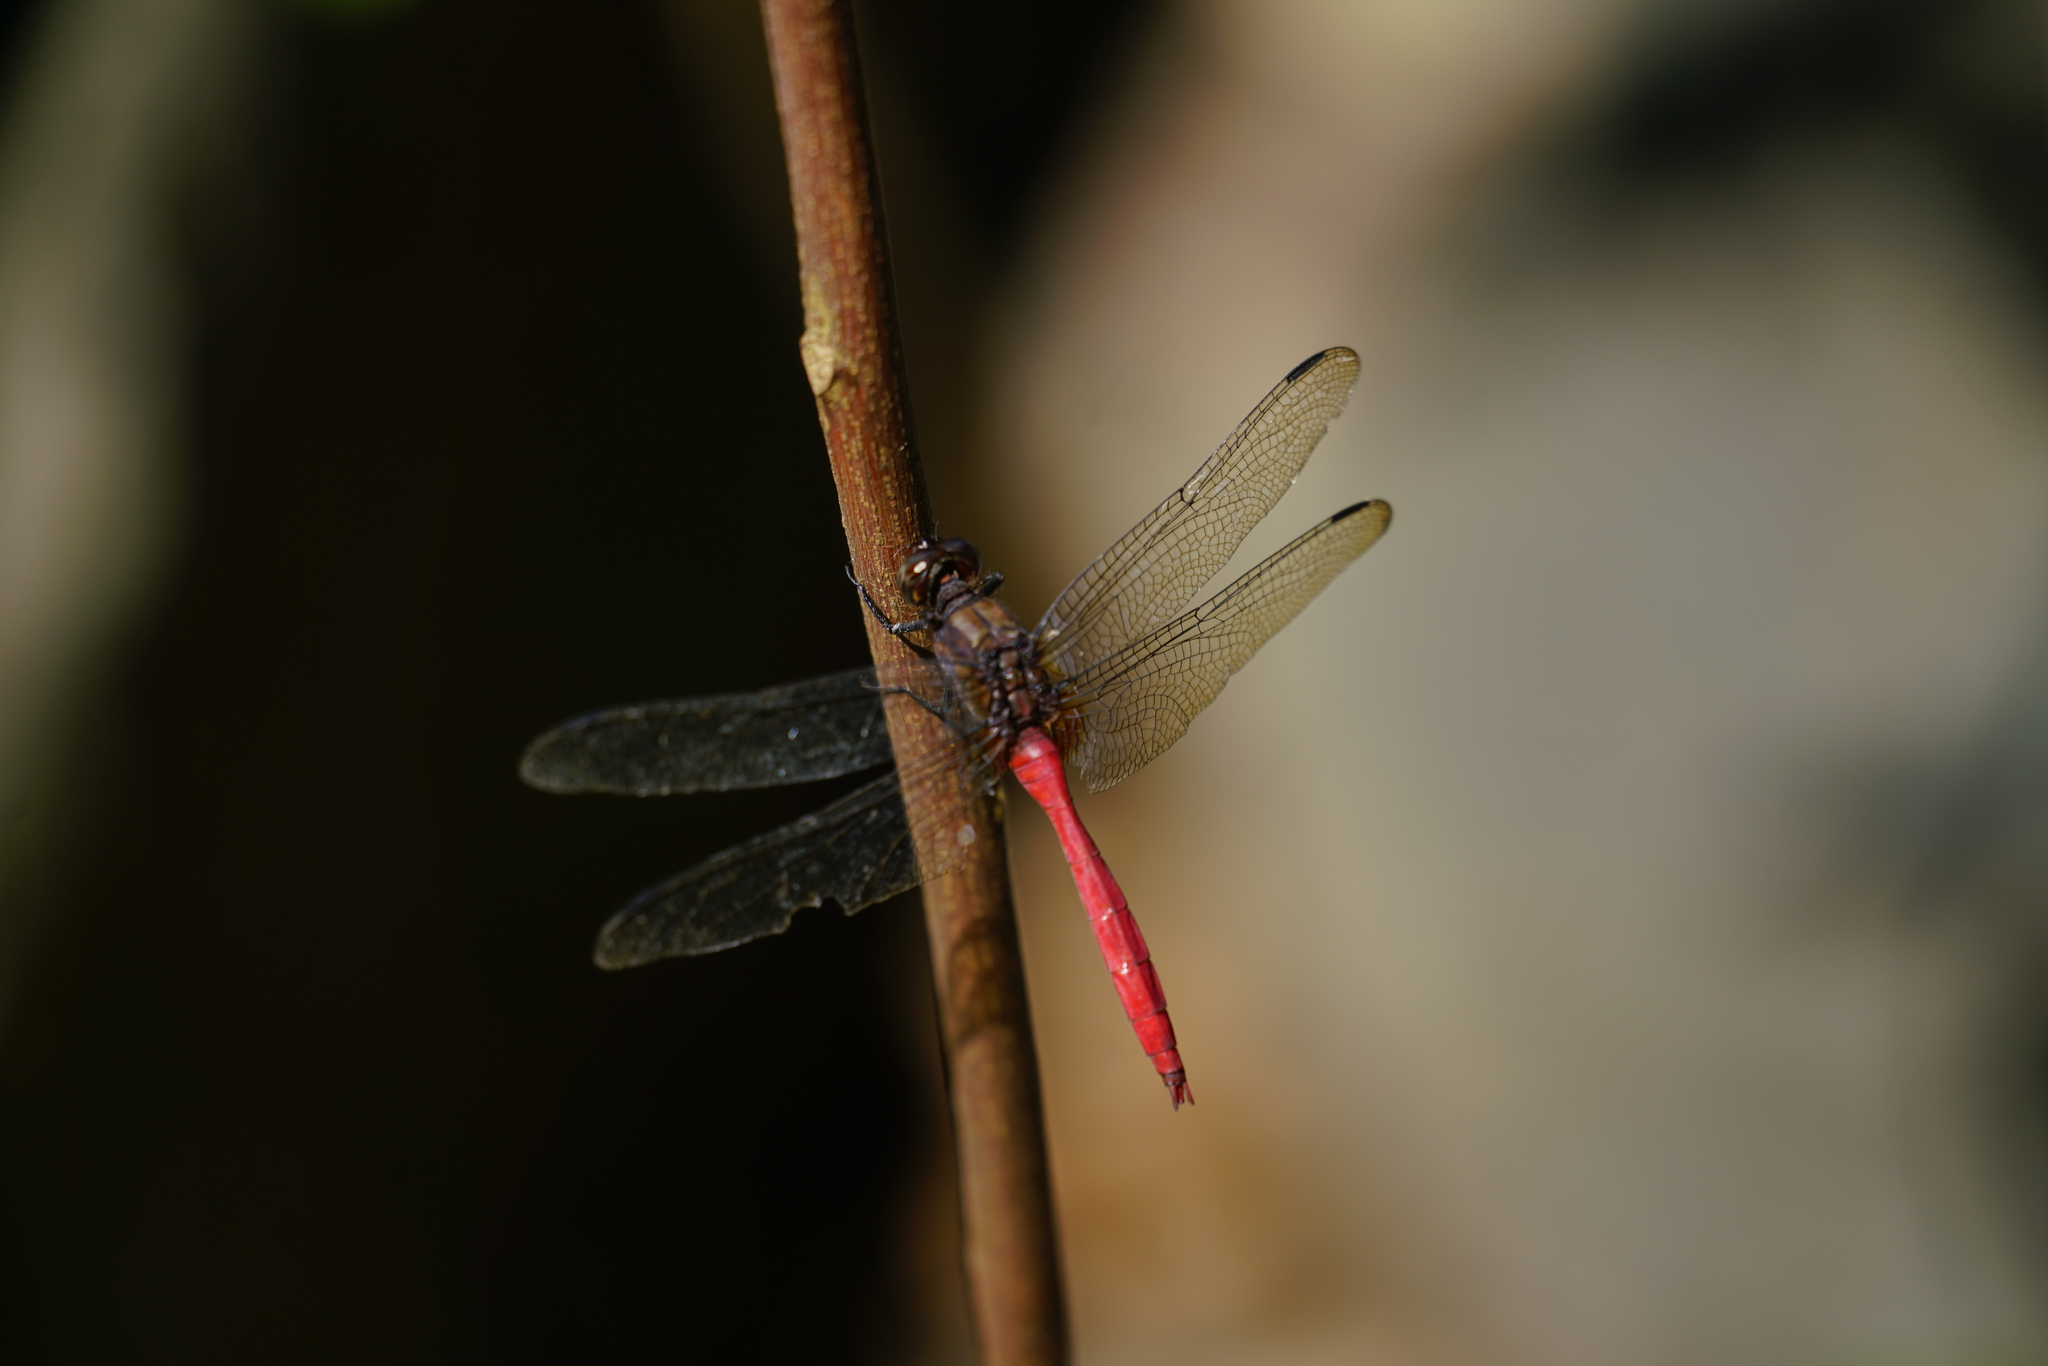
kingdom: Animalia
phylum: Arthropoda
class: Insecta
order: Odonata
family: Libellulidae
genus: Orthetrum
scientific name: Orthetrum villosovittatum
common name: Firery skimmer
